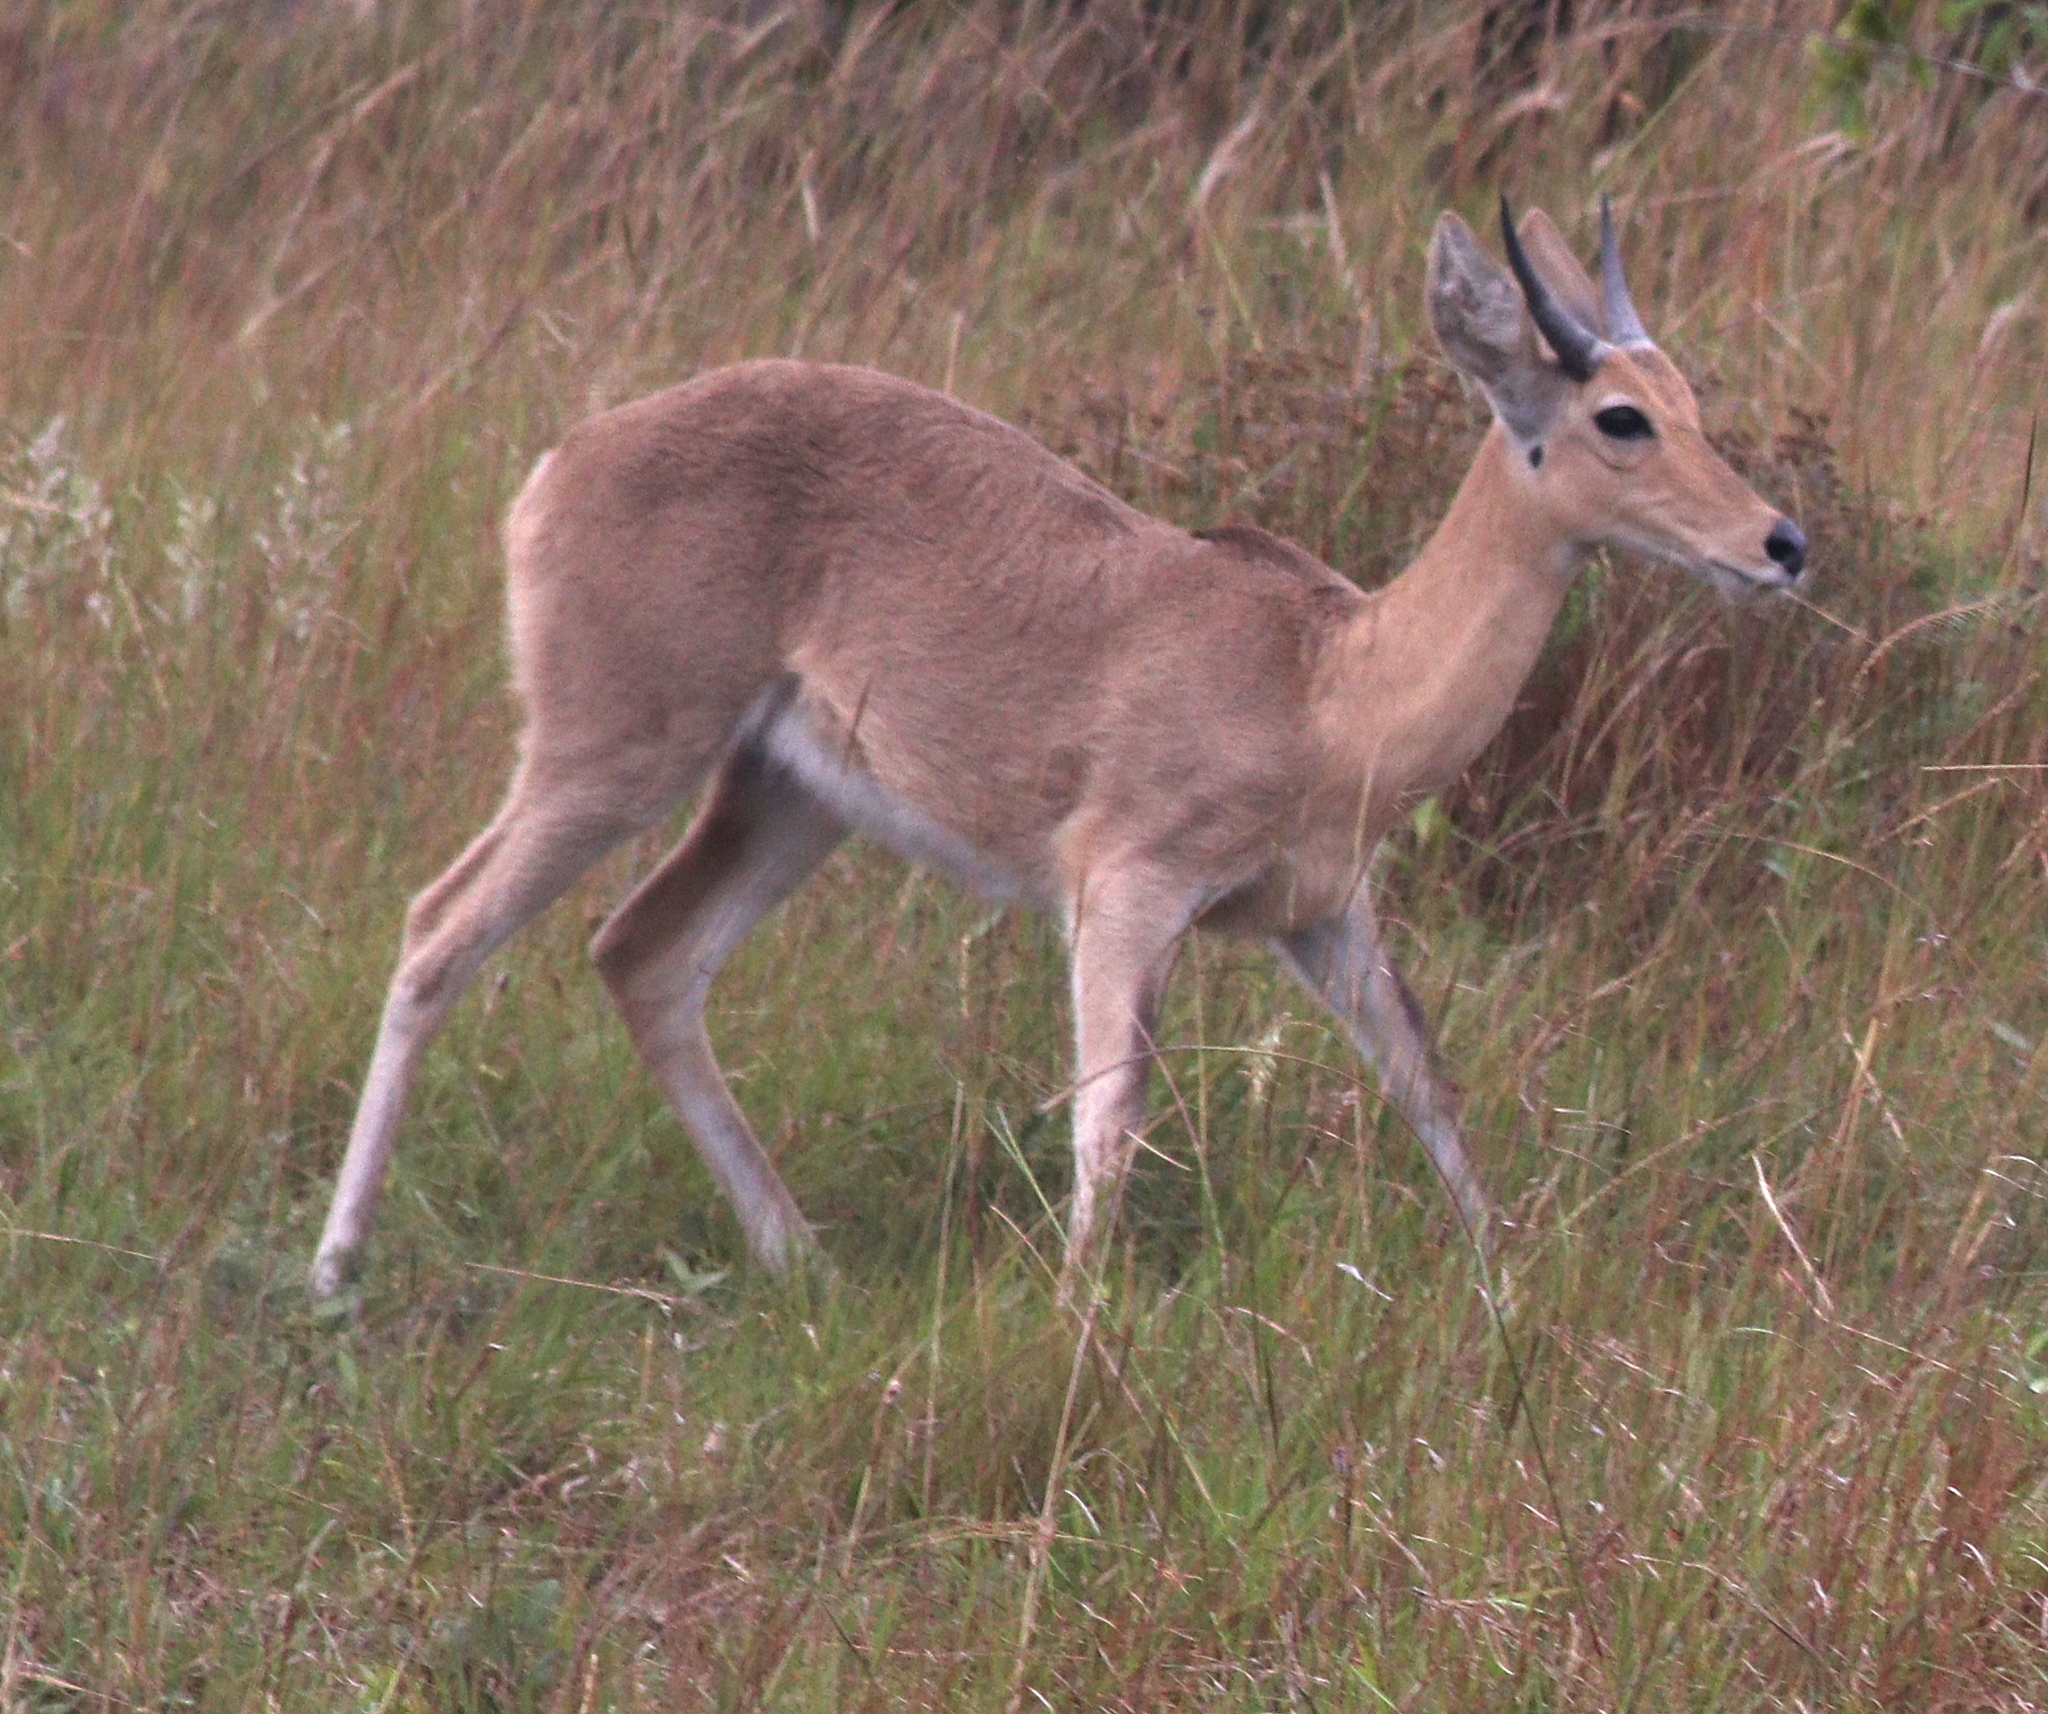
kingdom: Animalia
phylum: Chordata
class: Mammalia
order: Artiodactyla
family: Bovidae
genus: Redunca
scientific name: Redunca arundinum
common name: Southern reedbuck
